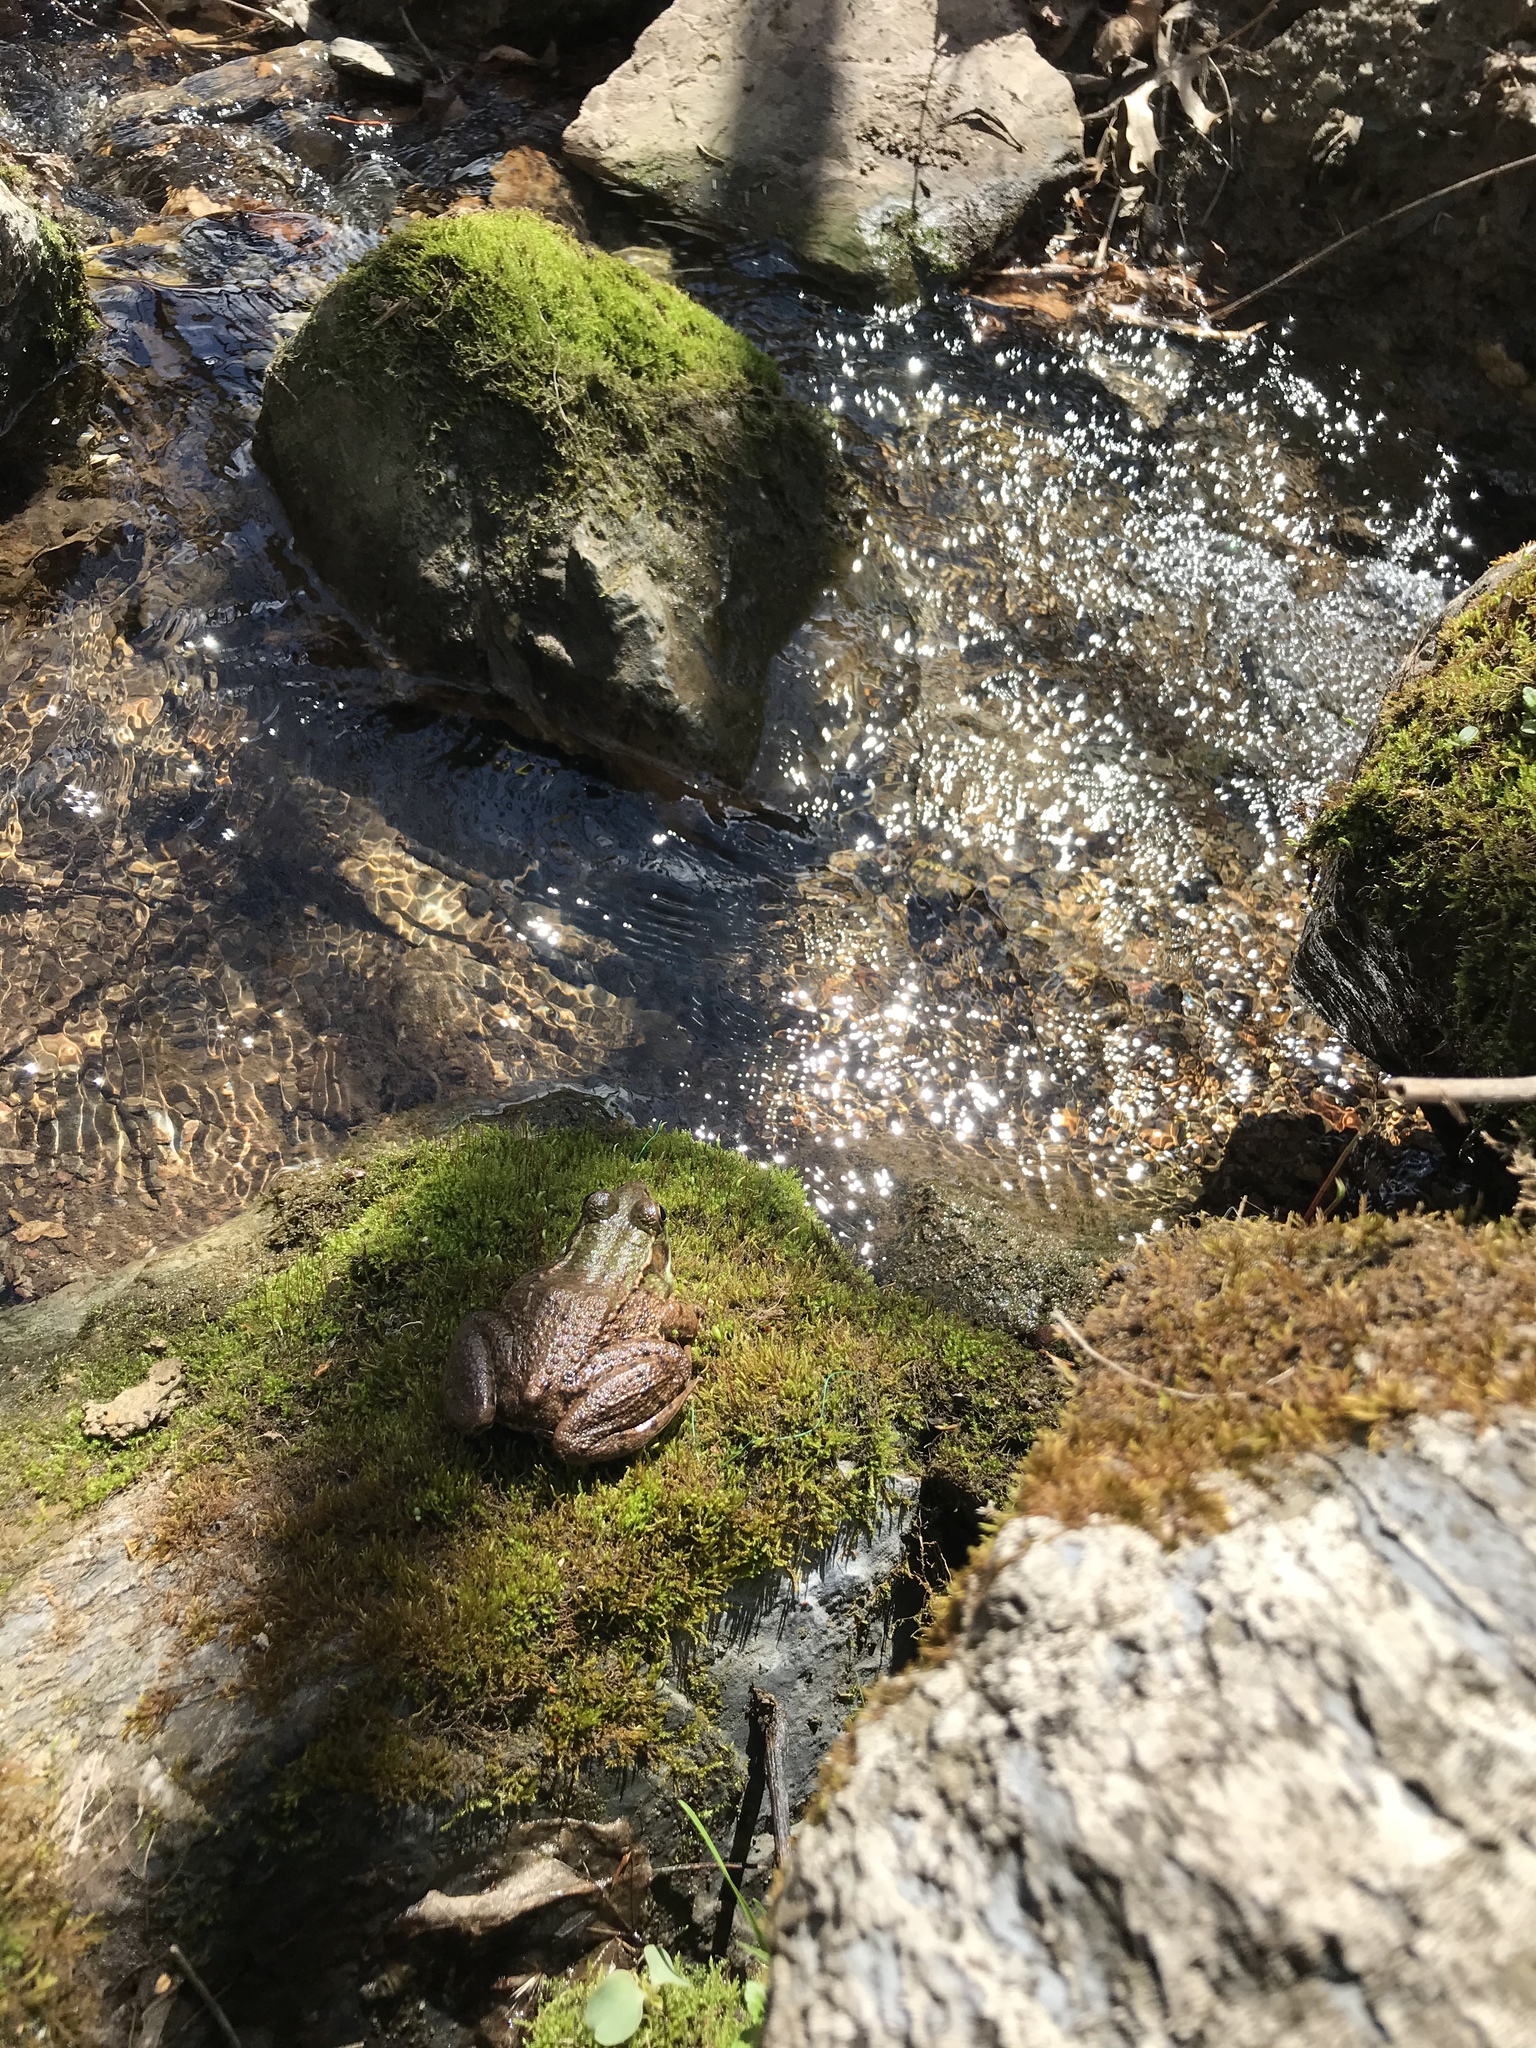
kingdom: Animalia
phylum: Chordata
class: Amphibia
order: Anura
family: Ranidae
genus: Lithobates
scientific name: Lithobates clamitans
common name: Green frog
